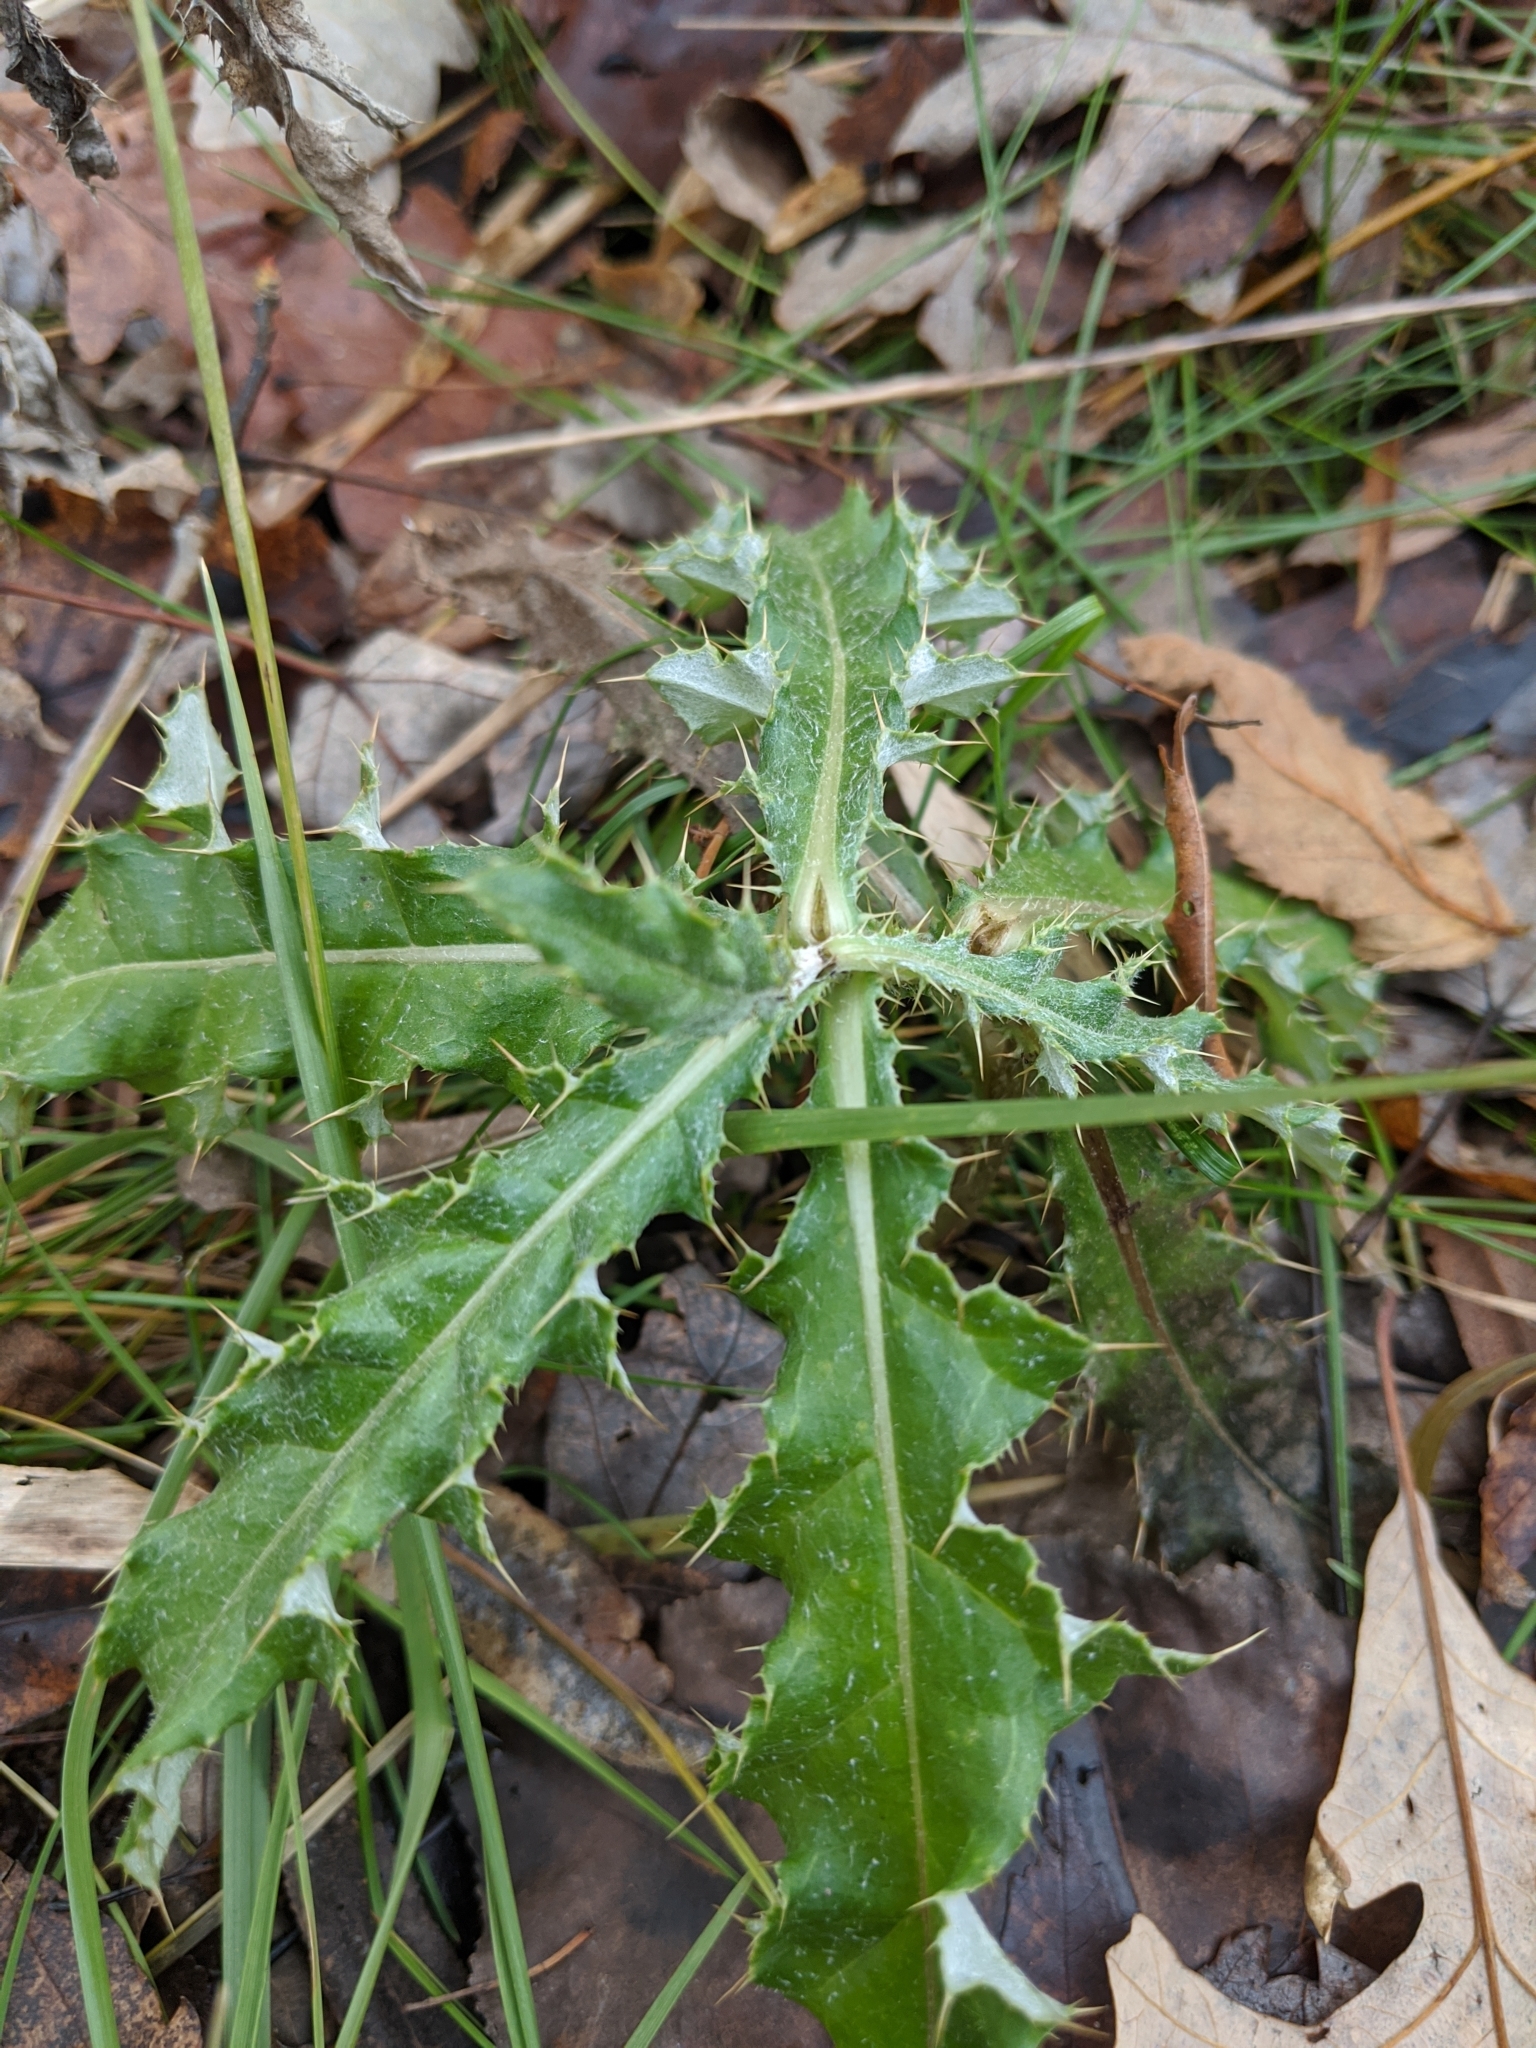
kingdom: Plantae
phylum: Tracheophyta
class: Magnoliopsida
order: Asterales
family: Asteraceae
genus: Cirsium
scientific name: Cirsium arvense
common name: Creeping thistle
